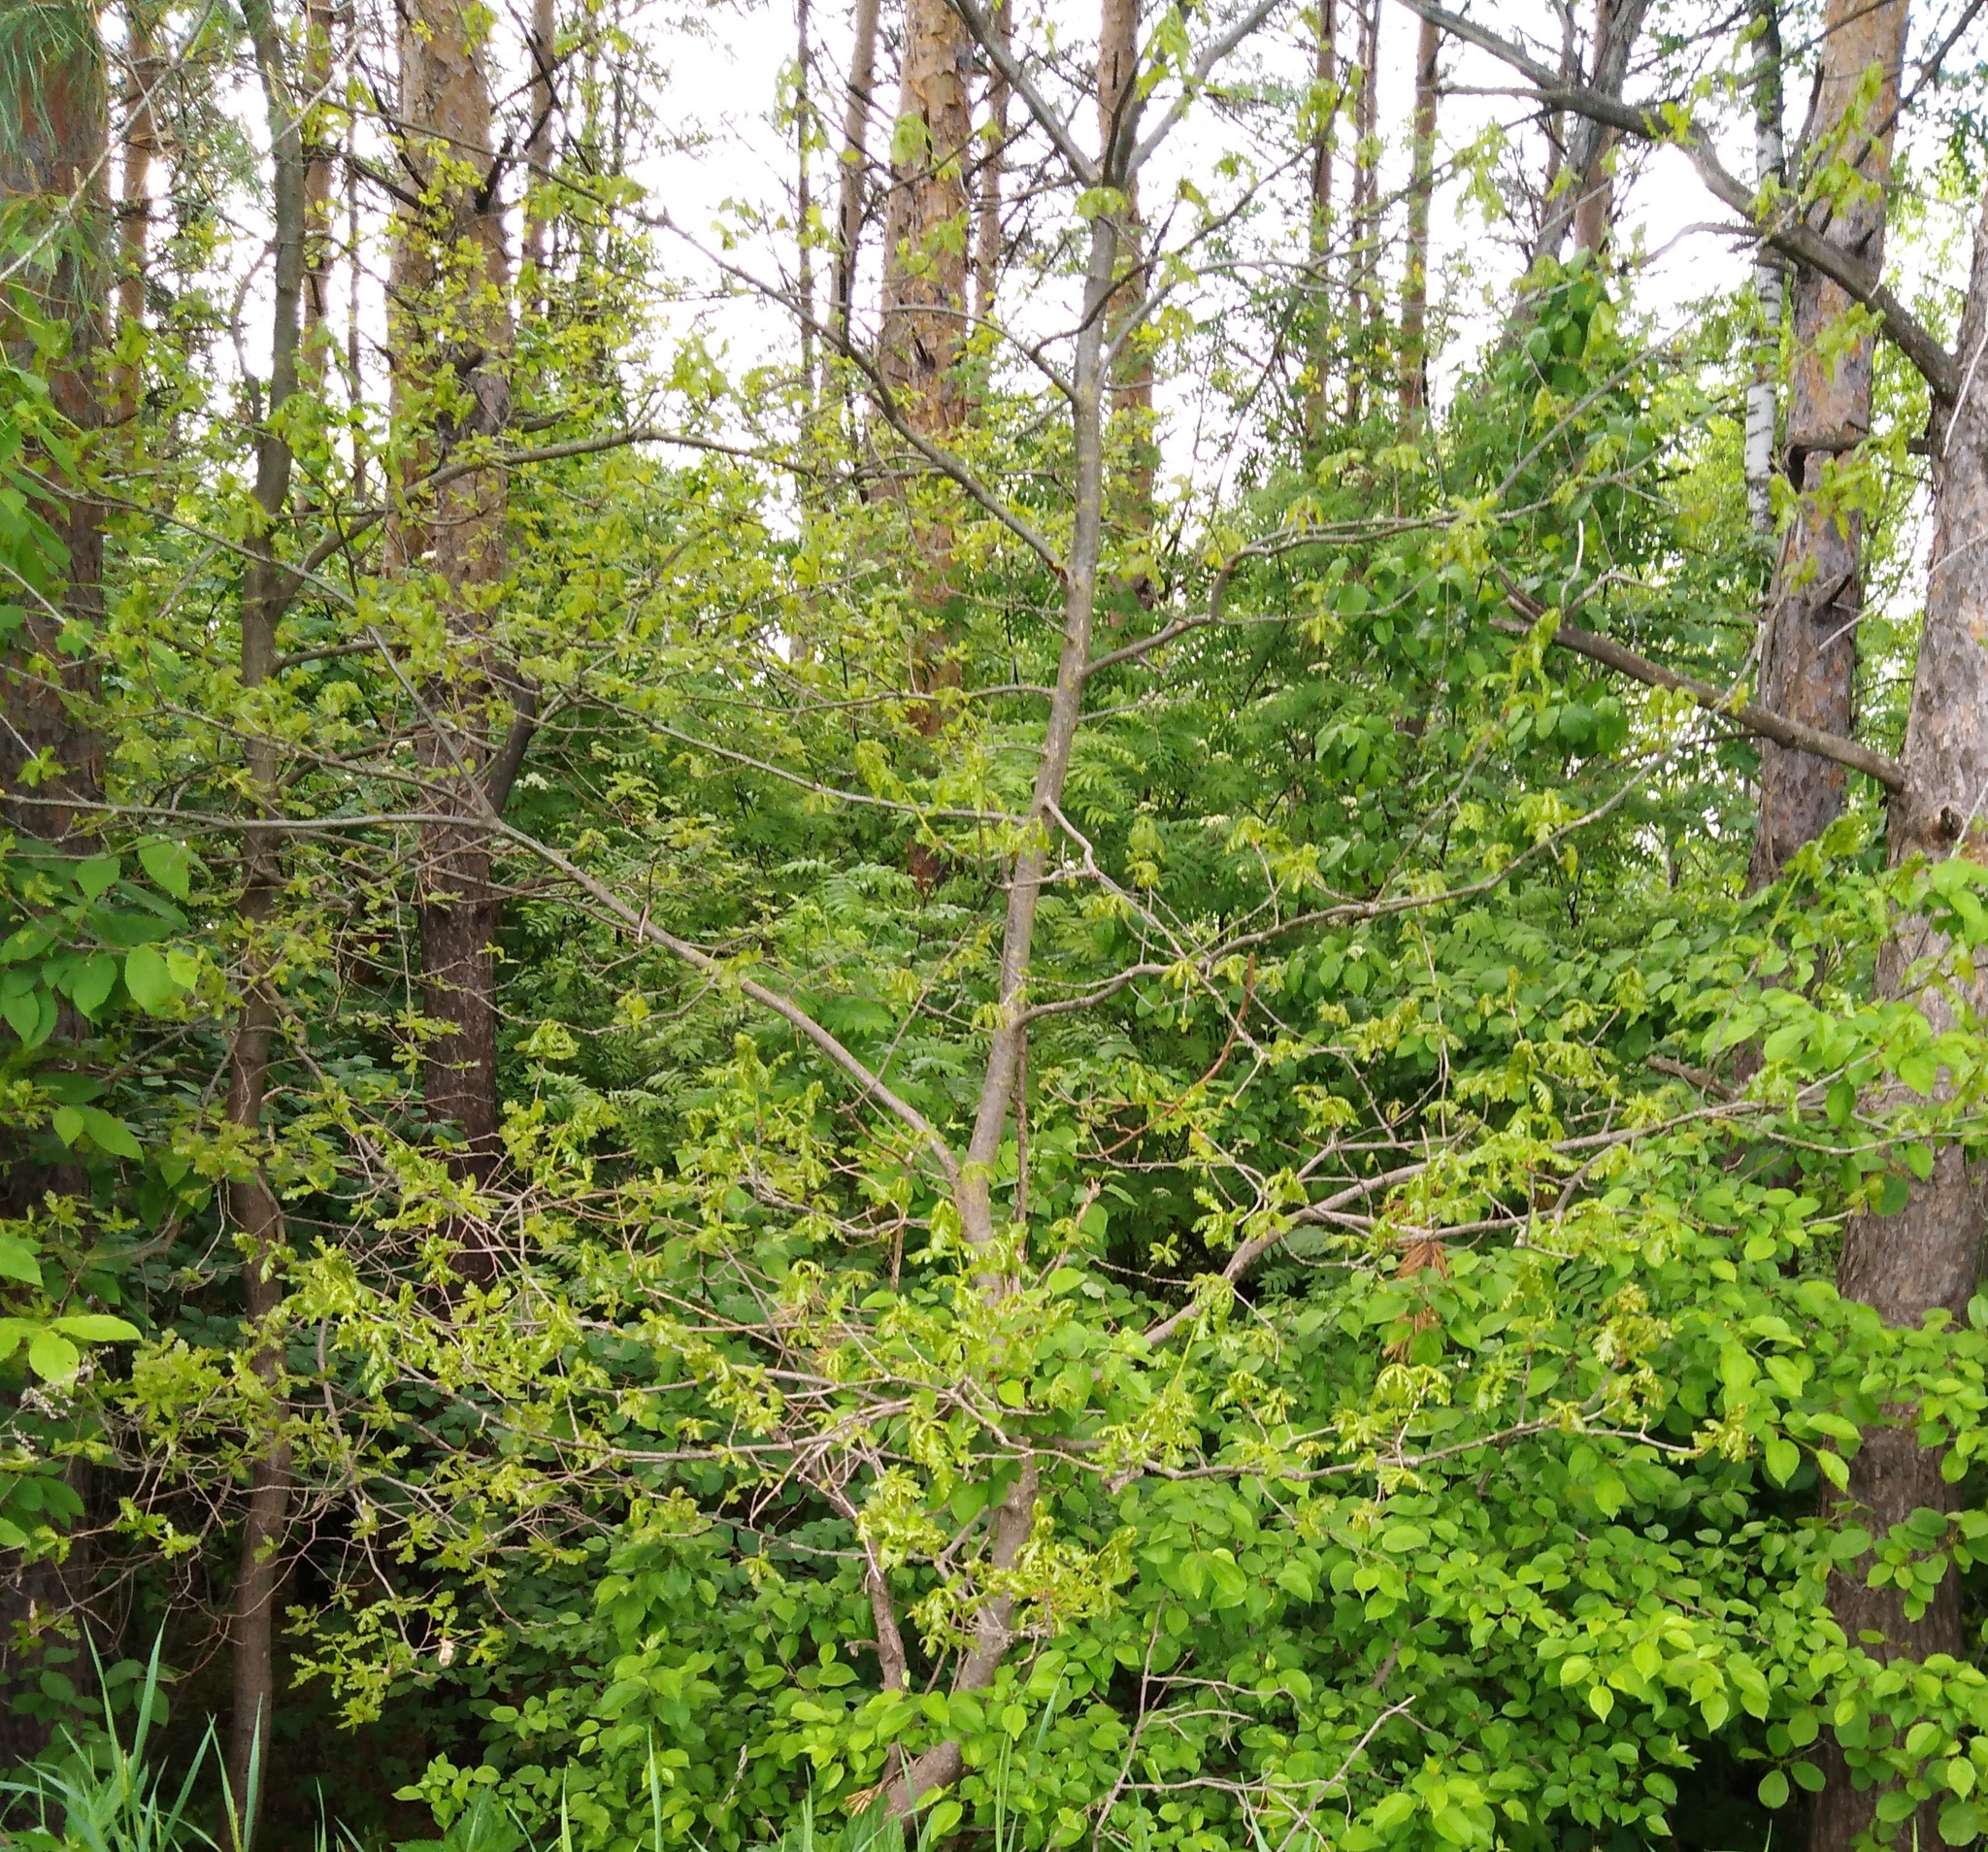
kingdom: Plantae
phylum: Tracheophyta
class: Magnoliopsida
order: Fagales
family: Fagaceae
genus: Quercus
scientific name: Quercus robur
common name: Pedunculate oak
